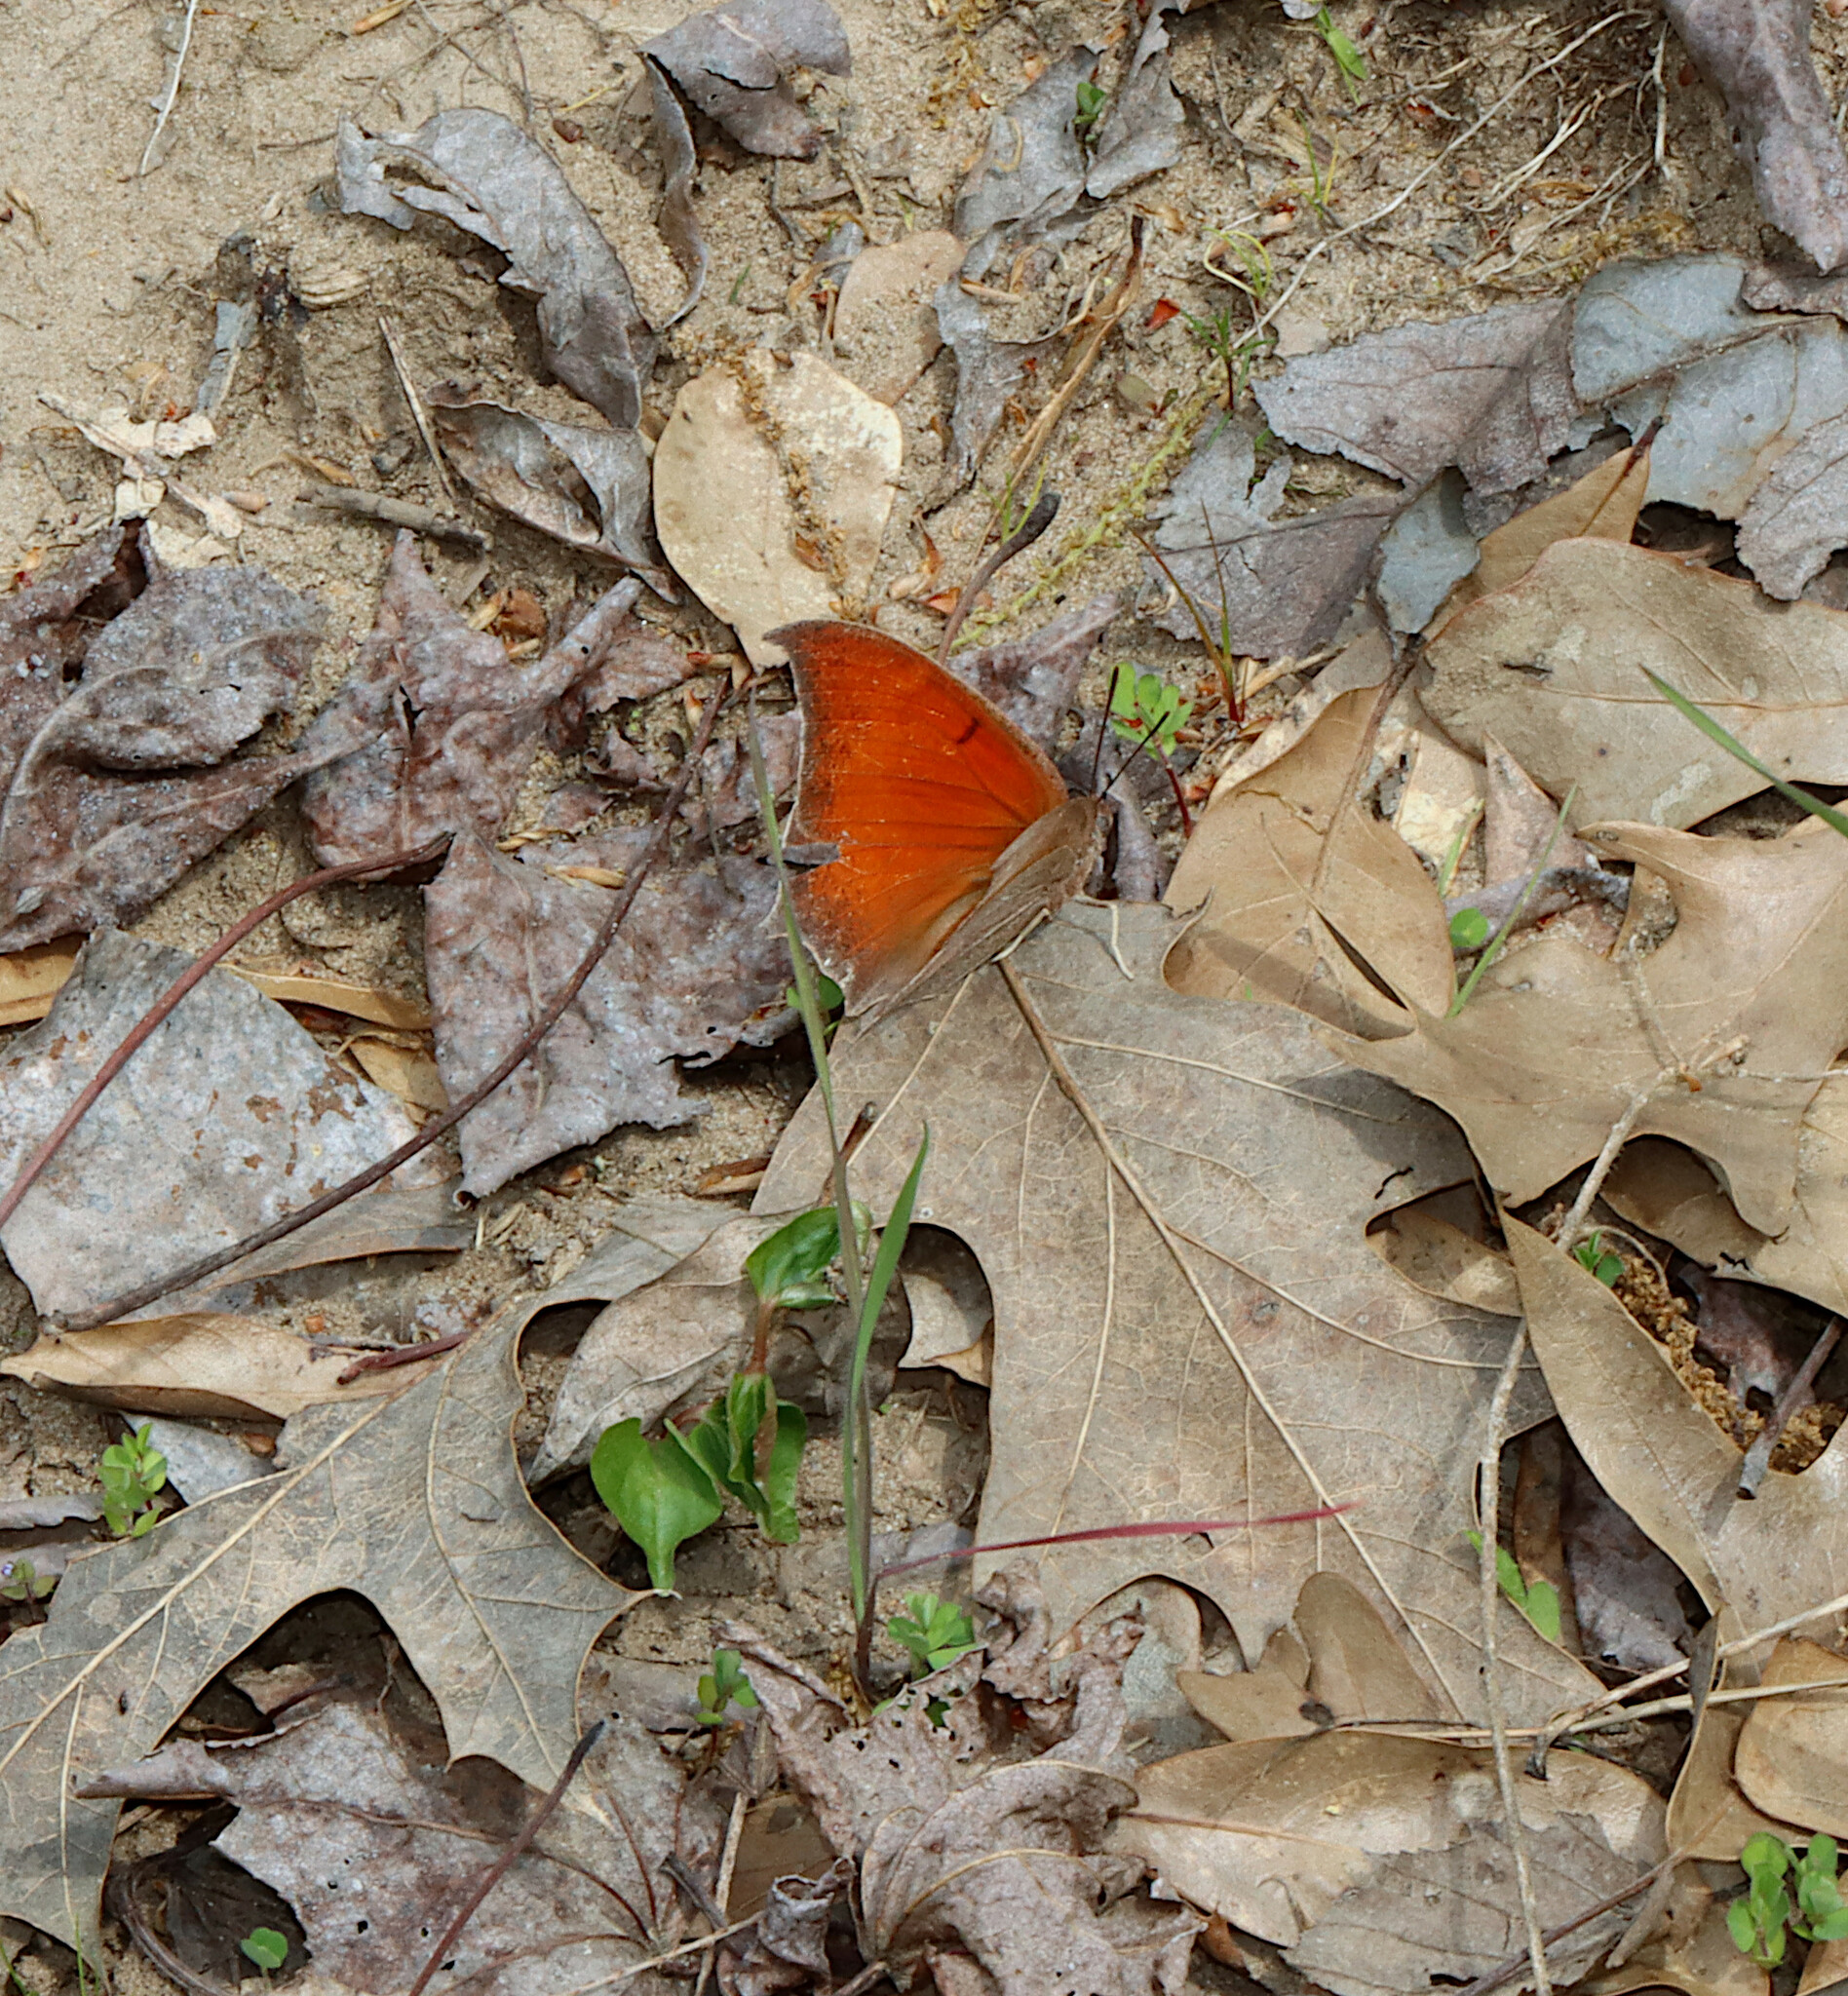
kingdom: Animalia
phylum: Arthropoda
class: Insecta
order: Lepidoptera
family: Nymphalidae
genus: Anaea
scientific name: Anaea andria
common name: Goatweed leafwing
